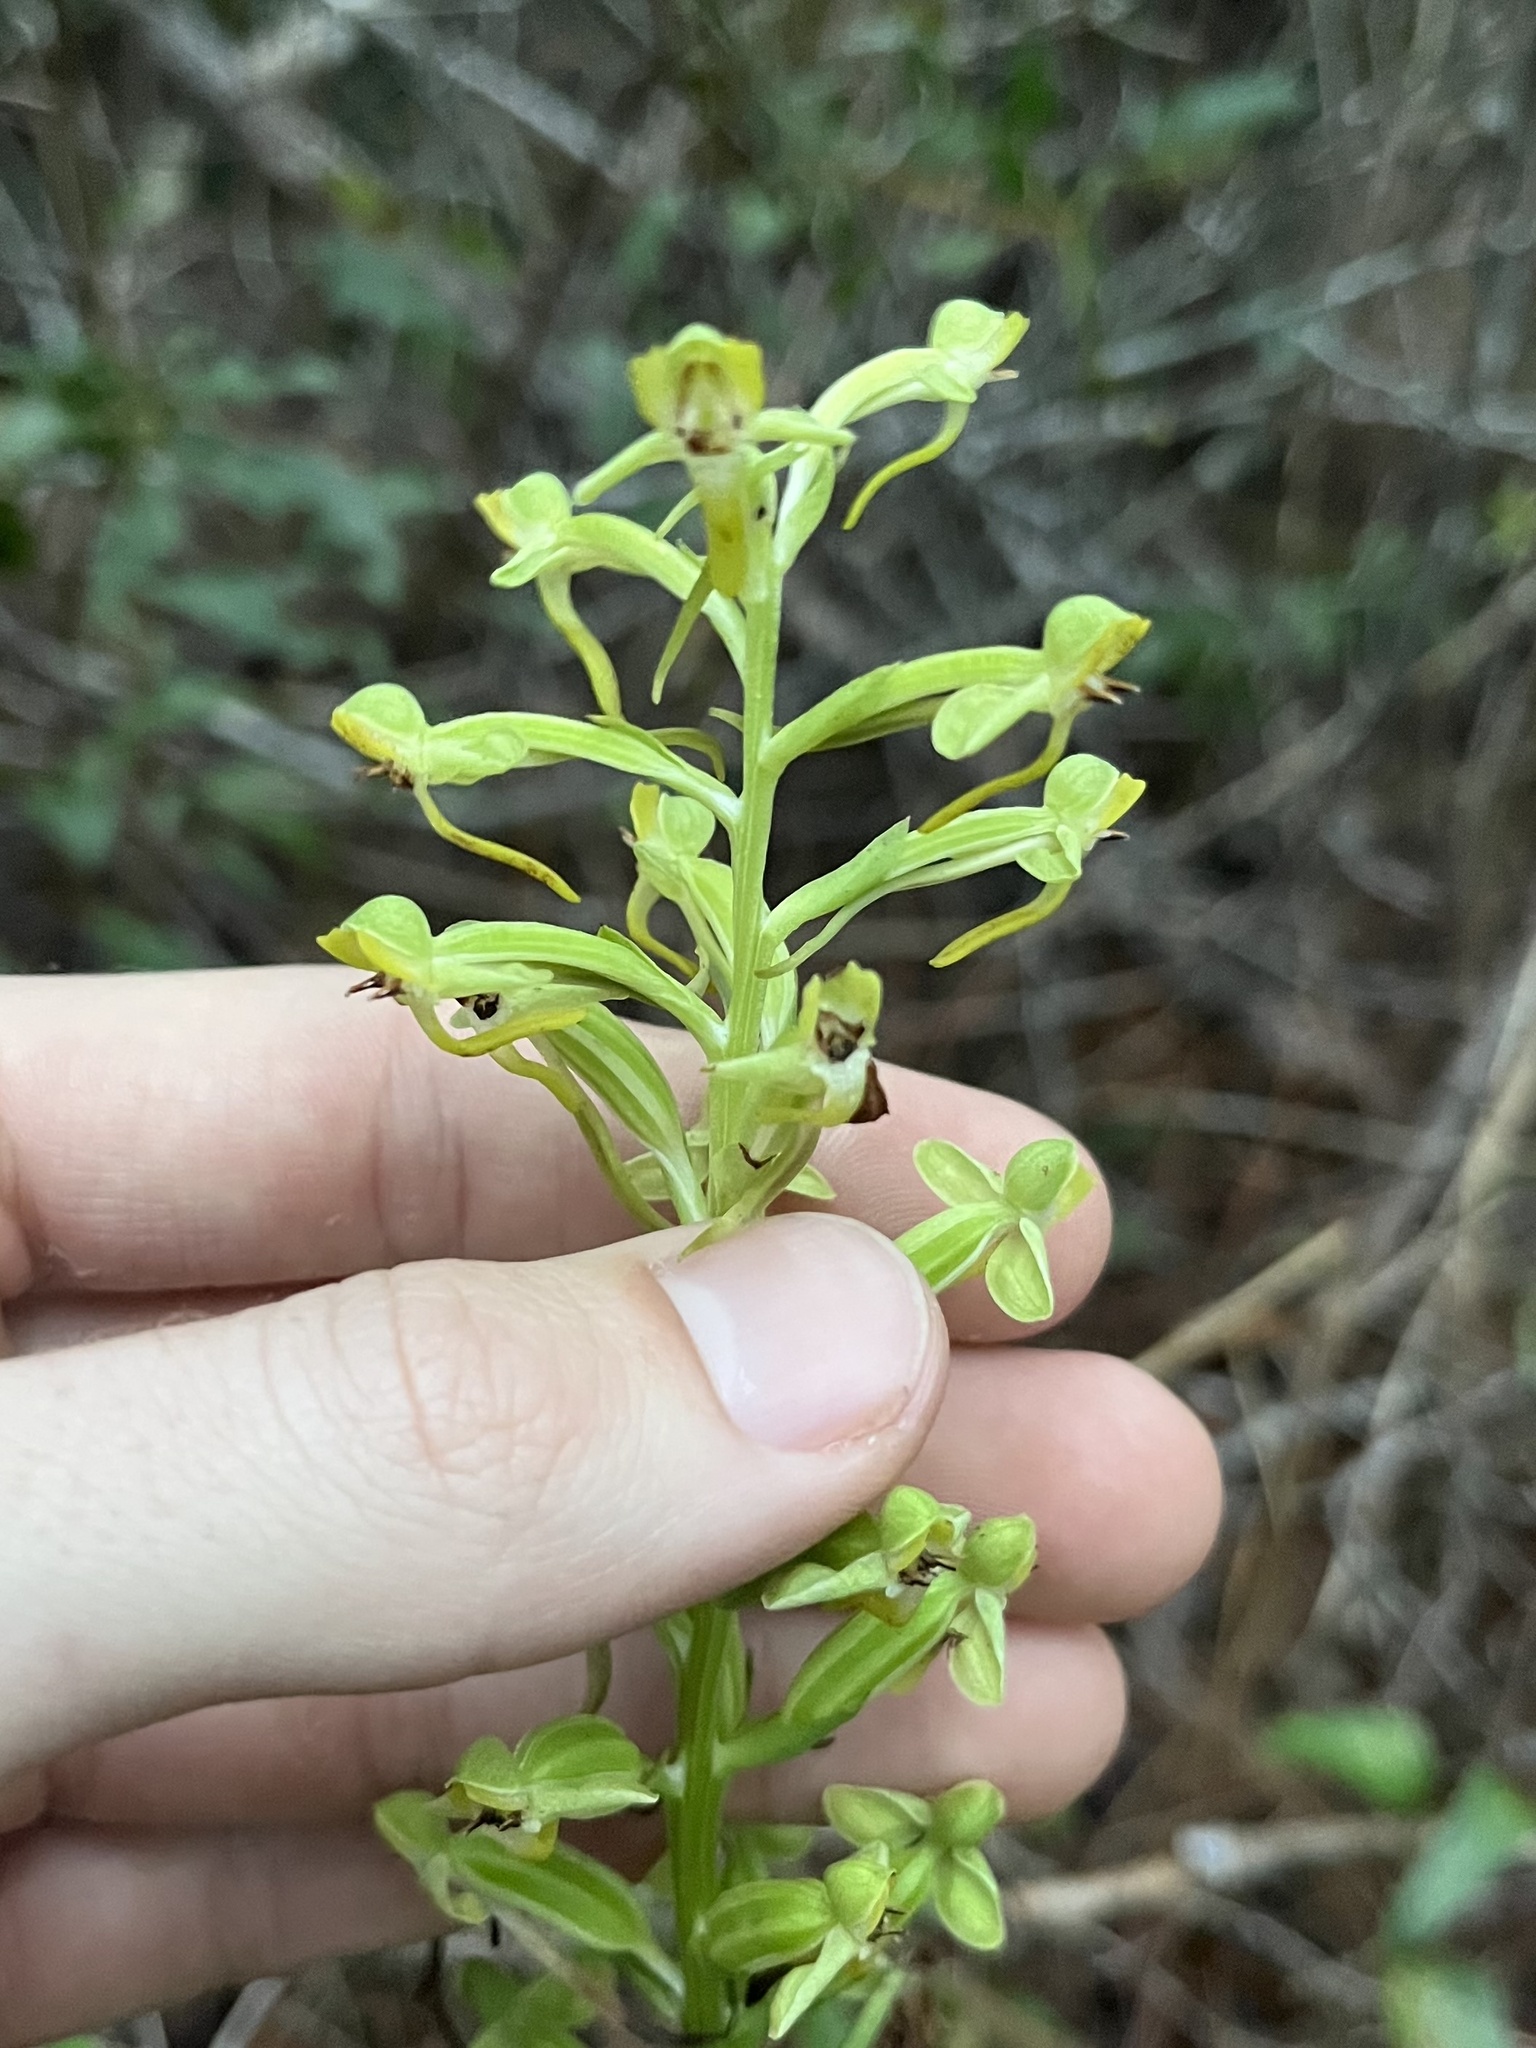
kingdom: Plantae
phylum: Tracheophyta
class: Liliopsida
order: Asparagales
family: Orchidaceae
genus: Habenaria
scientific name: Habenaria floribunda
